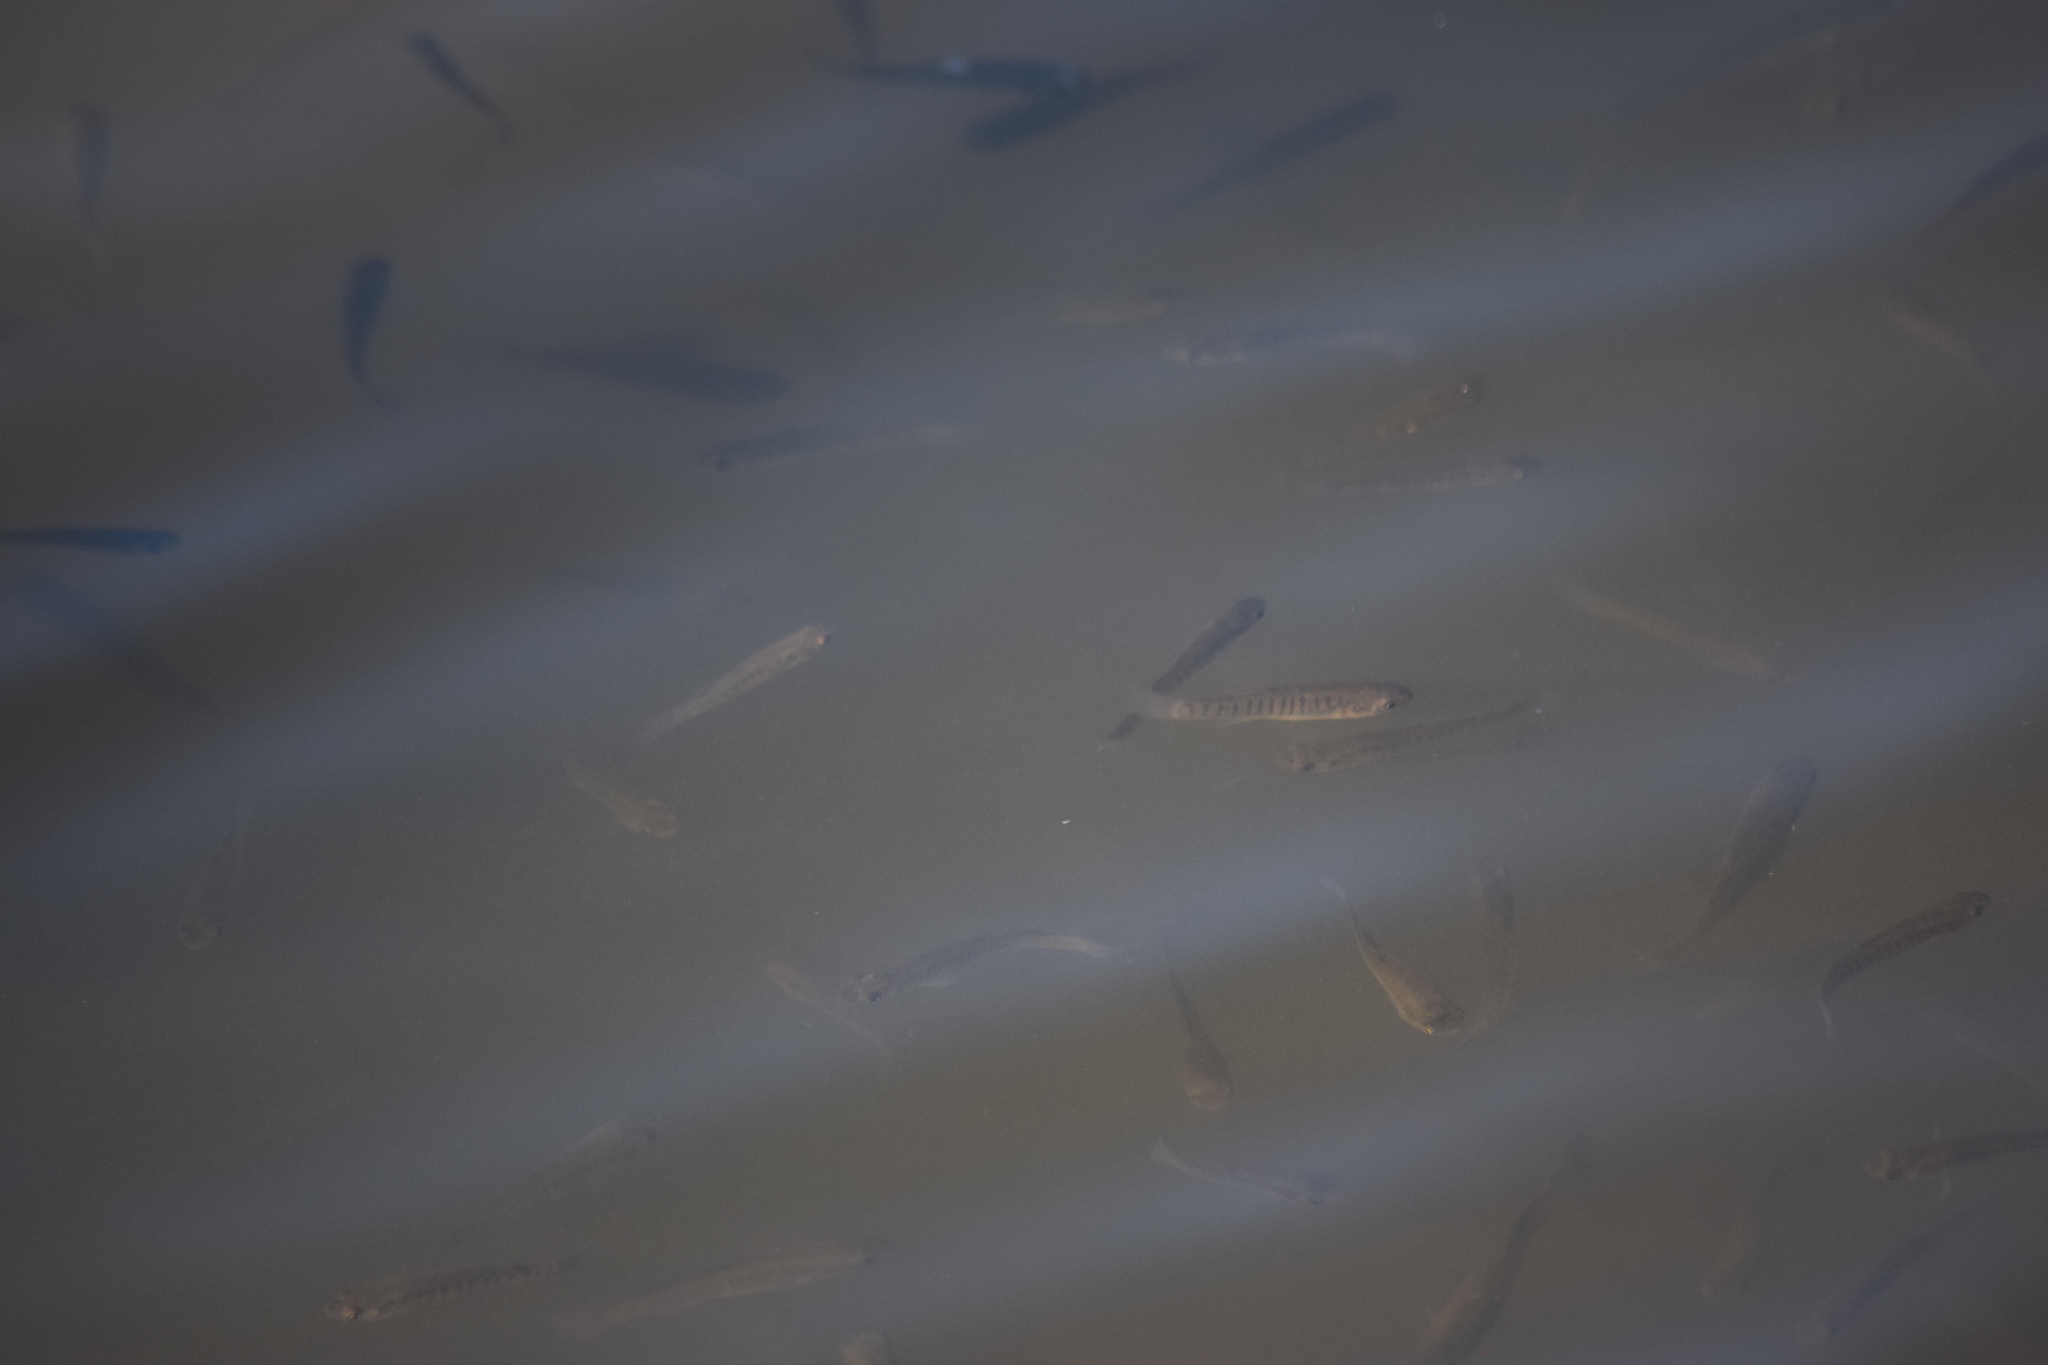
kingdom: Animalia
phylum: Chordata
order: Cyprinodontiformes
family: Fundulidae
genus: Fundulus
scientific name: Fundulus heteroclitus
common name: Mummichog
